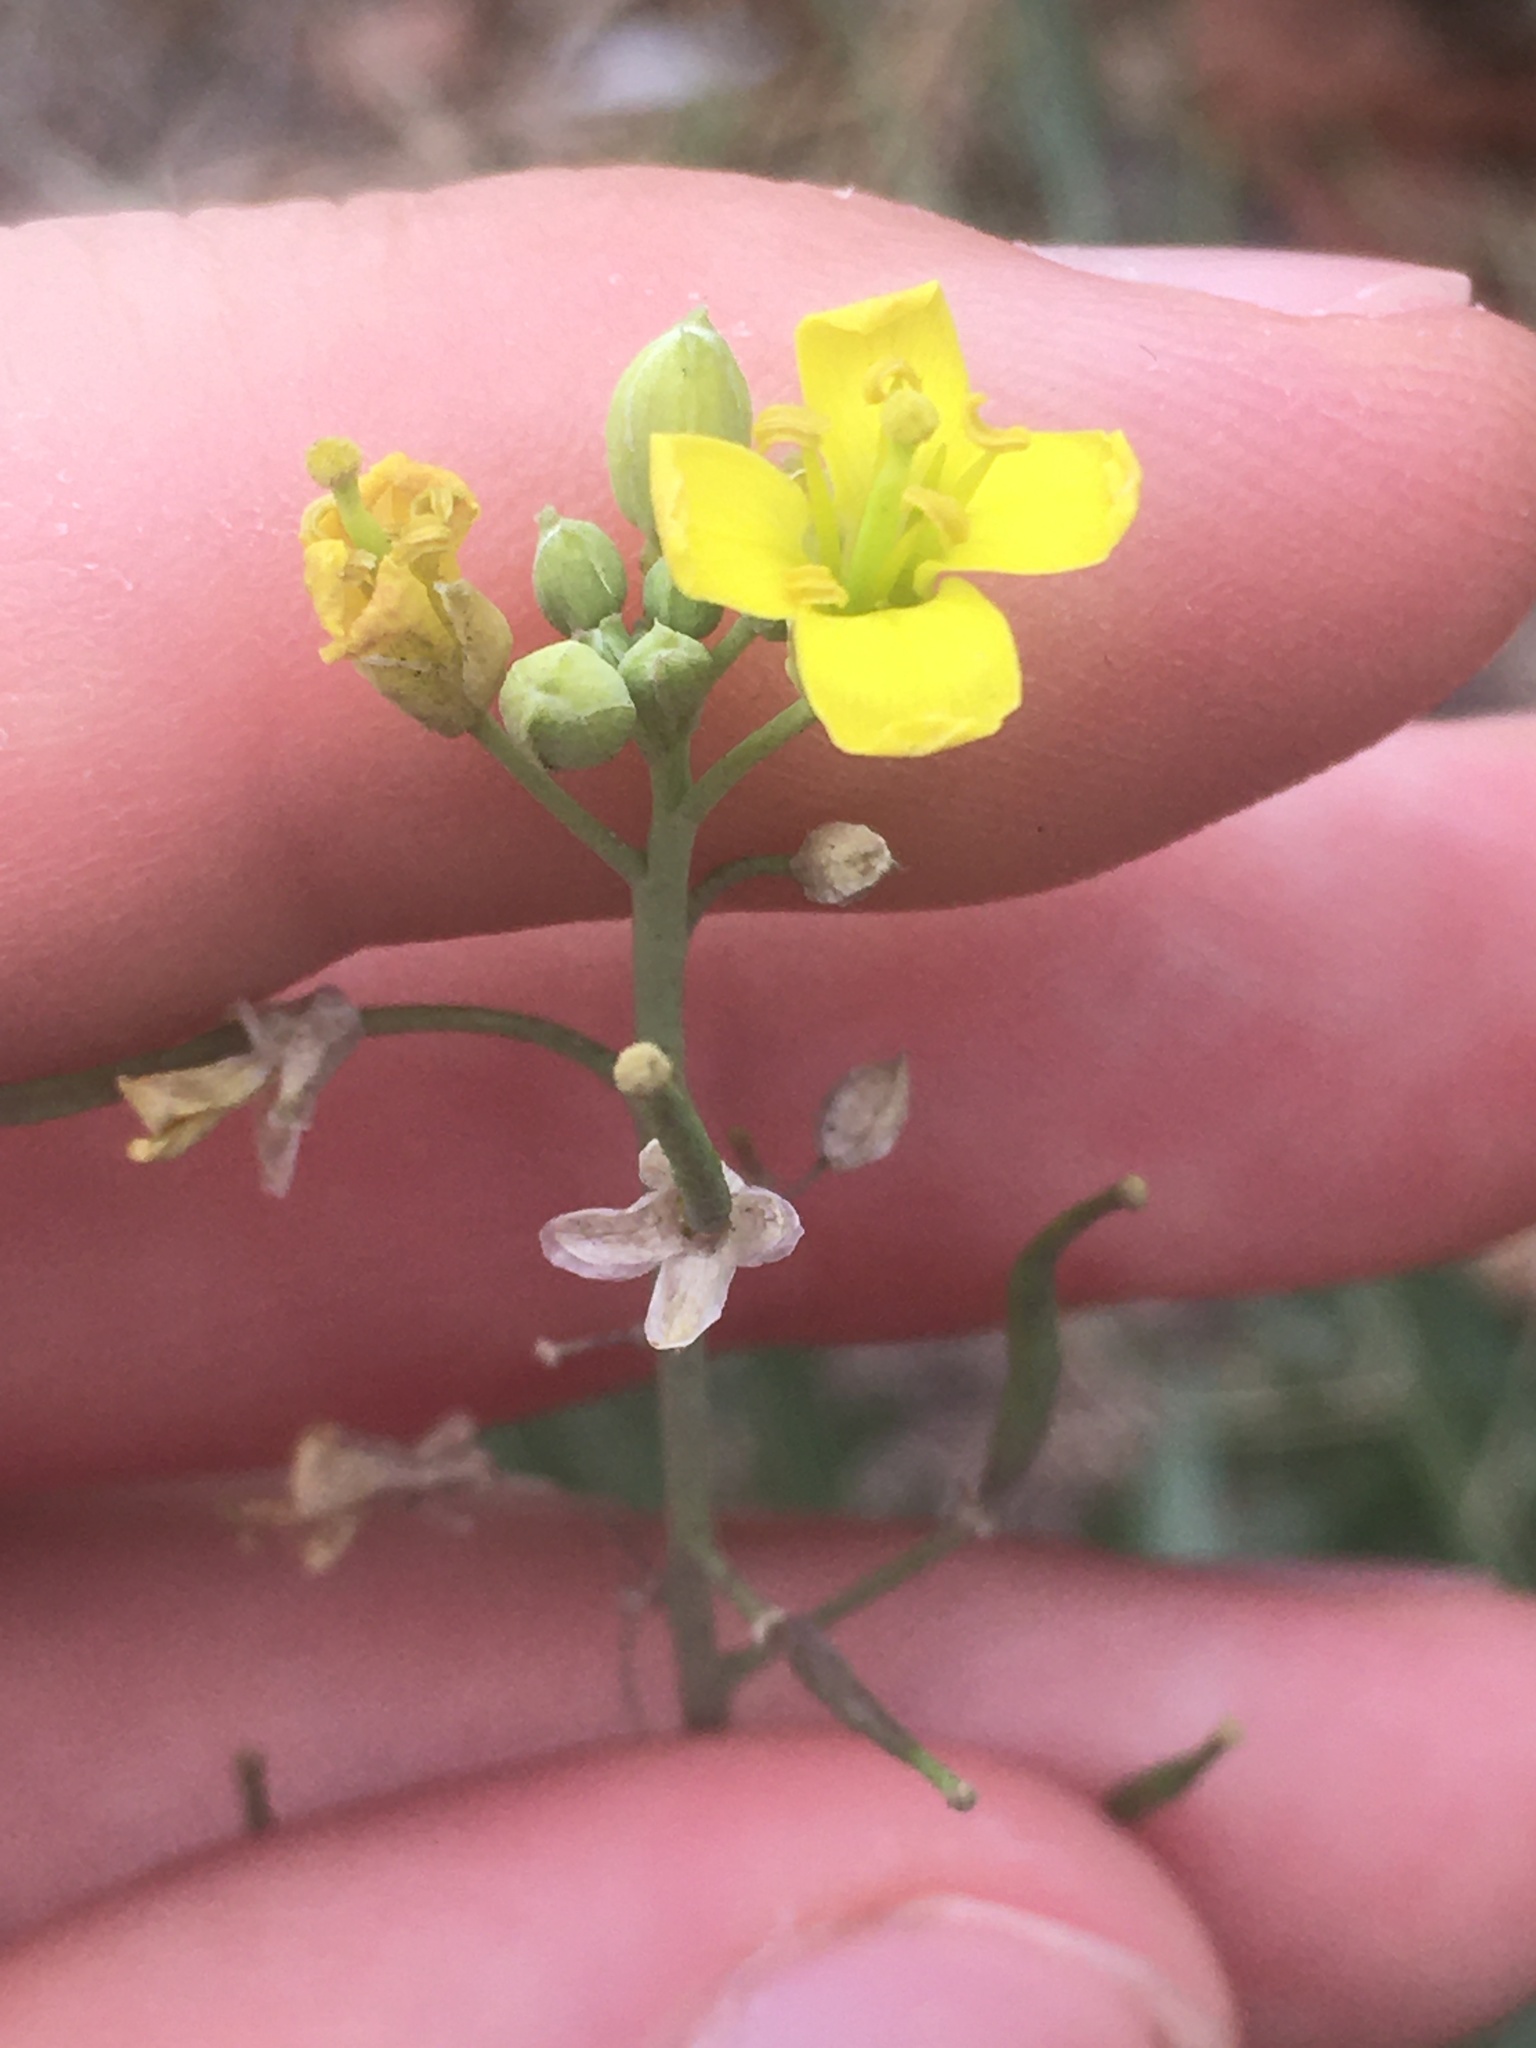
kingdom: Plantae
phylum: Tracheophyta
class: Magnoliopsida
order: Brassicales
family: Brassicaceae
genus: Diplotaxis
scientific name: Diplotaxis tenuifolia
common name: Perennial wall-rocket
